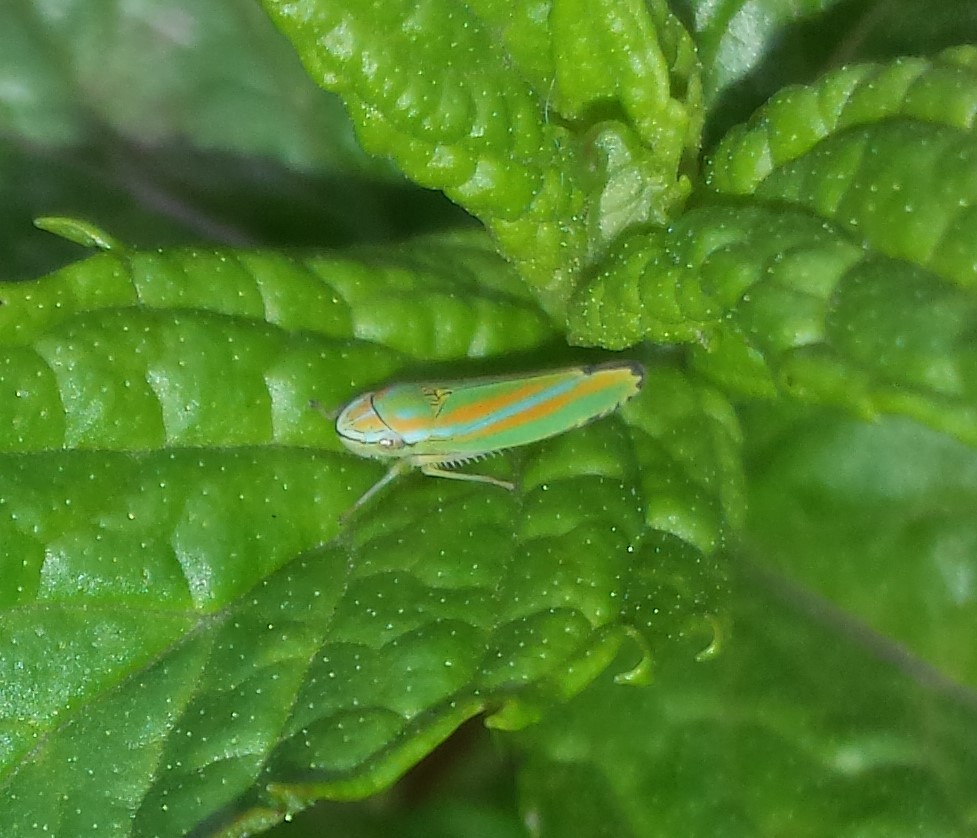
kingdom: Animalia
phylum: Arthropoda
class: Insecta
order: Hemiptera
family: Cicadellidae
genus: Graphocephala
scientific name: Graphocephala versuta
